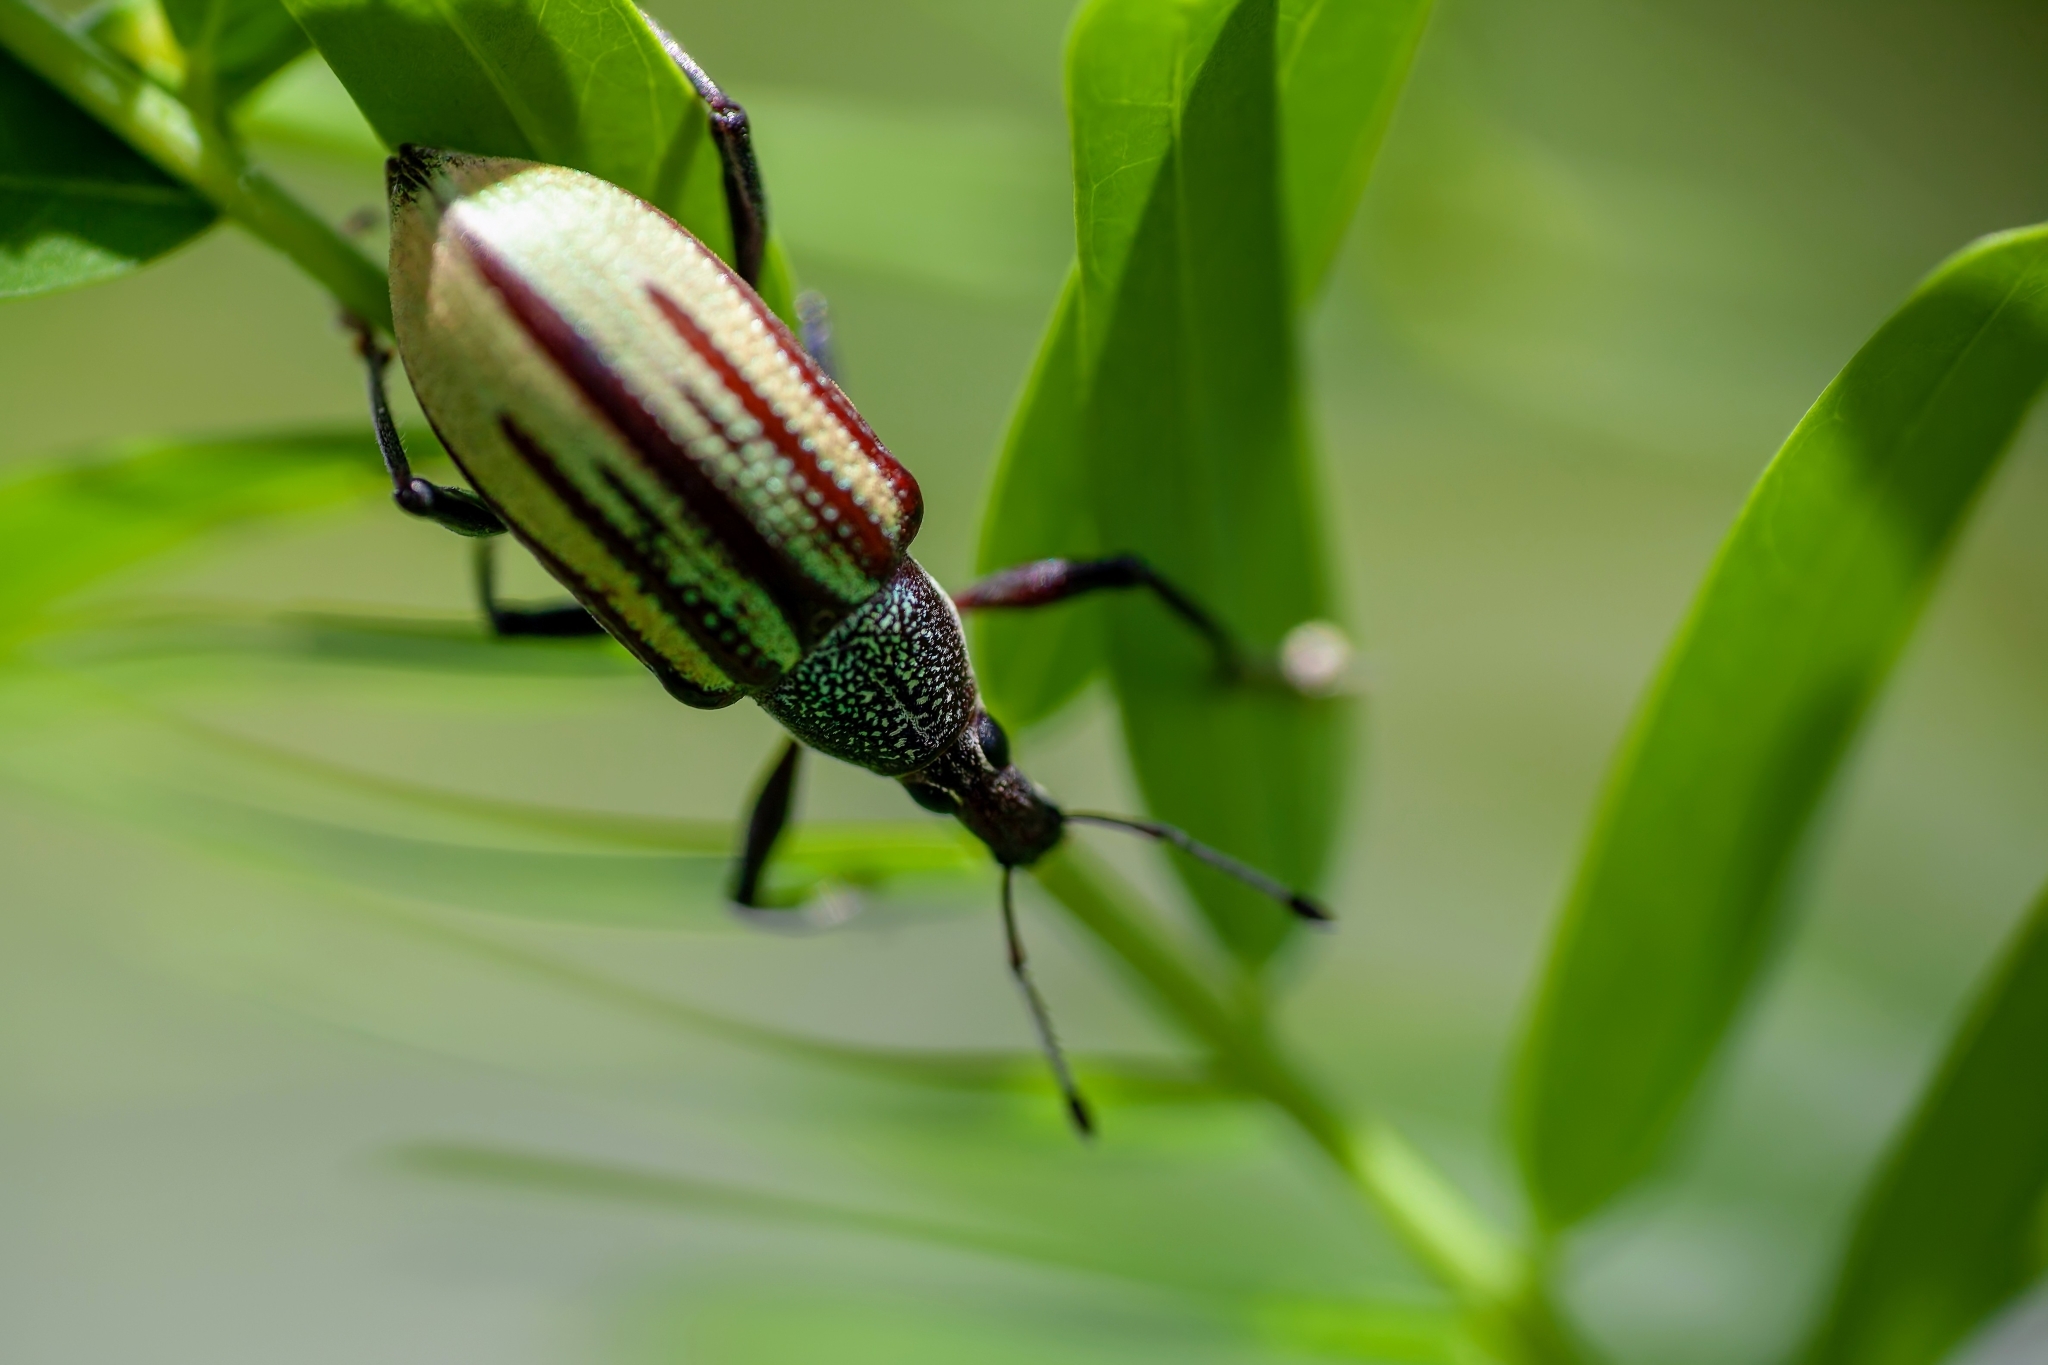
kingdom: Animalia
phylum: Arthropoda
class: Insecta
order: Coleoptera
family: Curculionidae
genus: Diaprepes
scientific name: Diaprepes abbreviatus
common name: Root weevil
